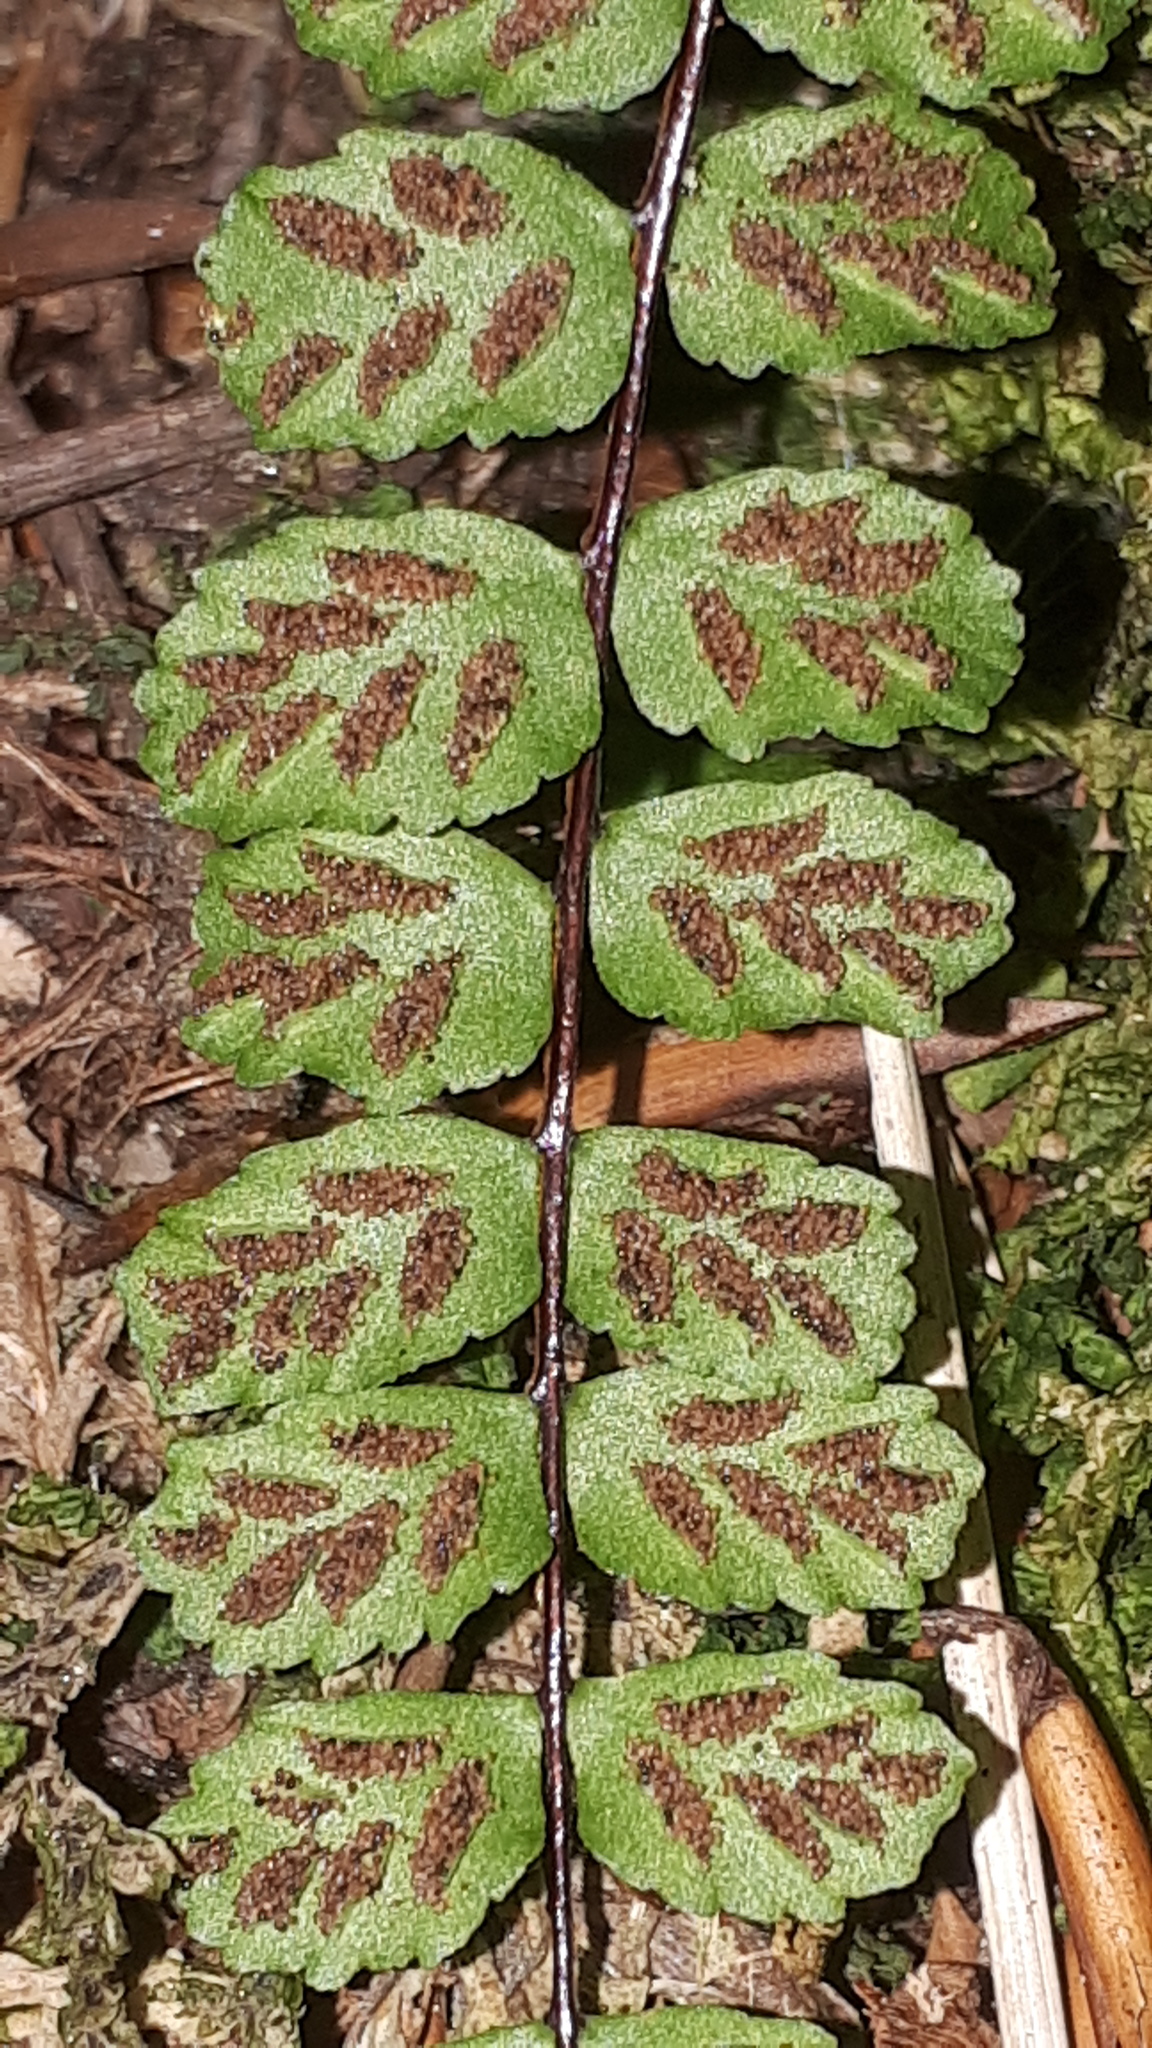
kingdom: Plantae
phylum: Tracheophyta
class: Polypodiopsida
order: Polypodiales
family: Aspleniaceae
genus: Asplenium
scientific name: Asplenium trichomanes
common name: Maidenhair spleenwort
